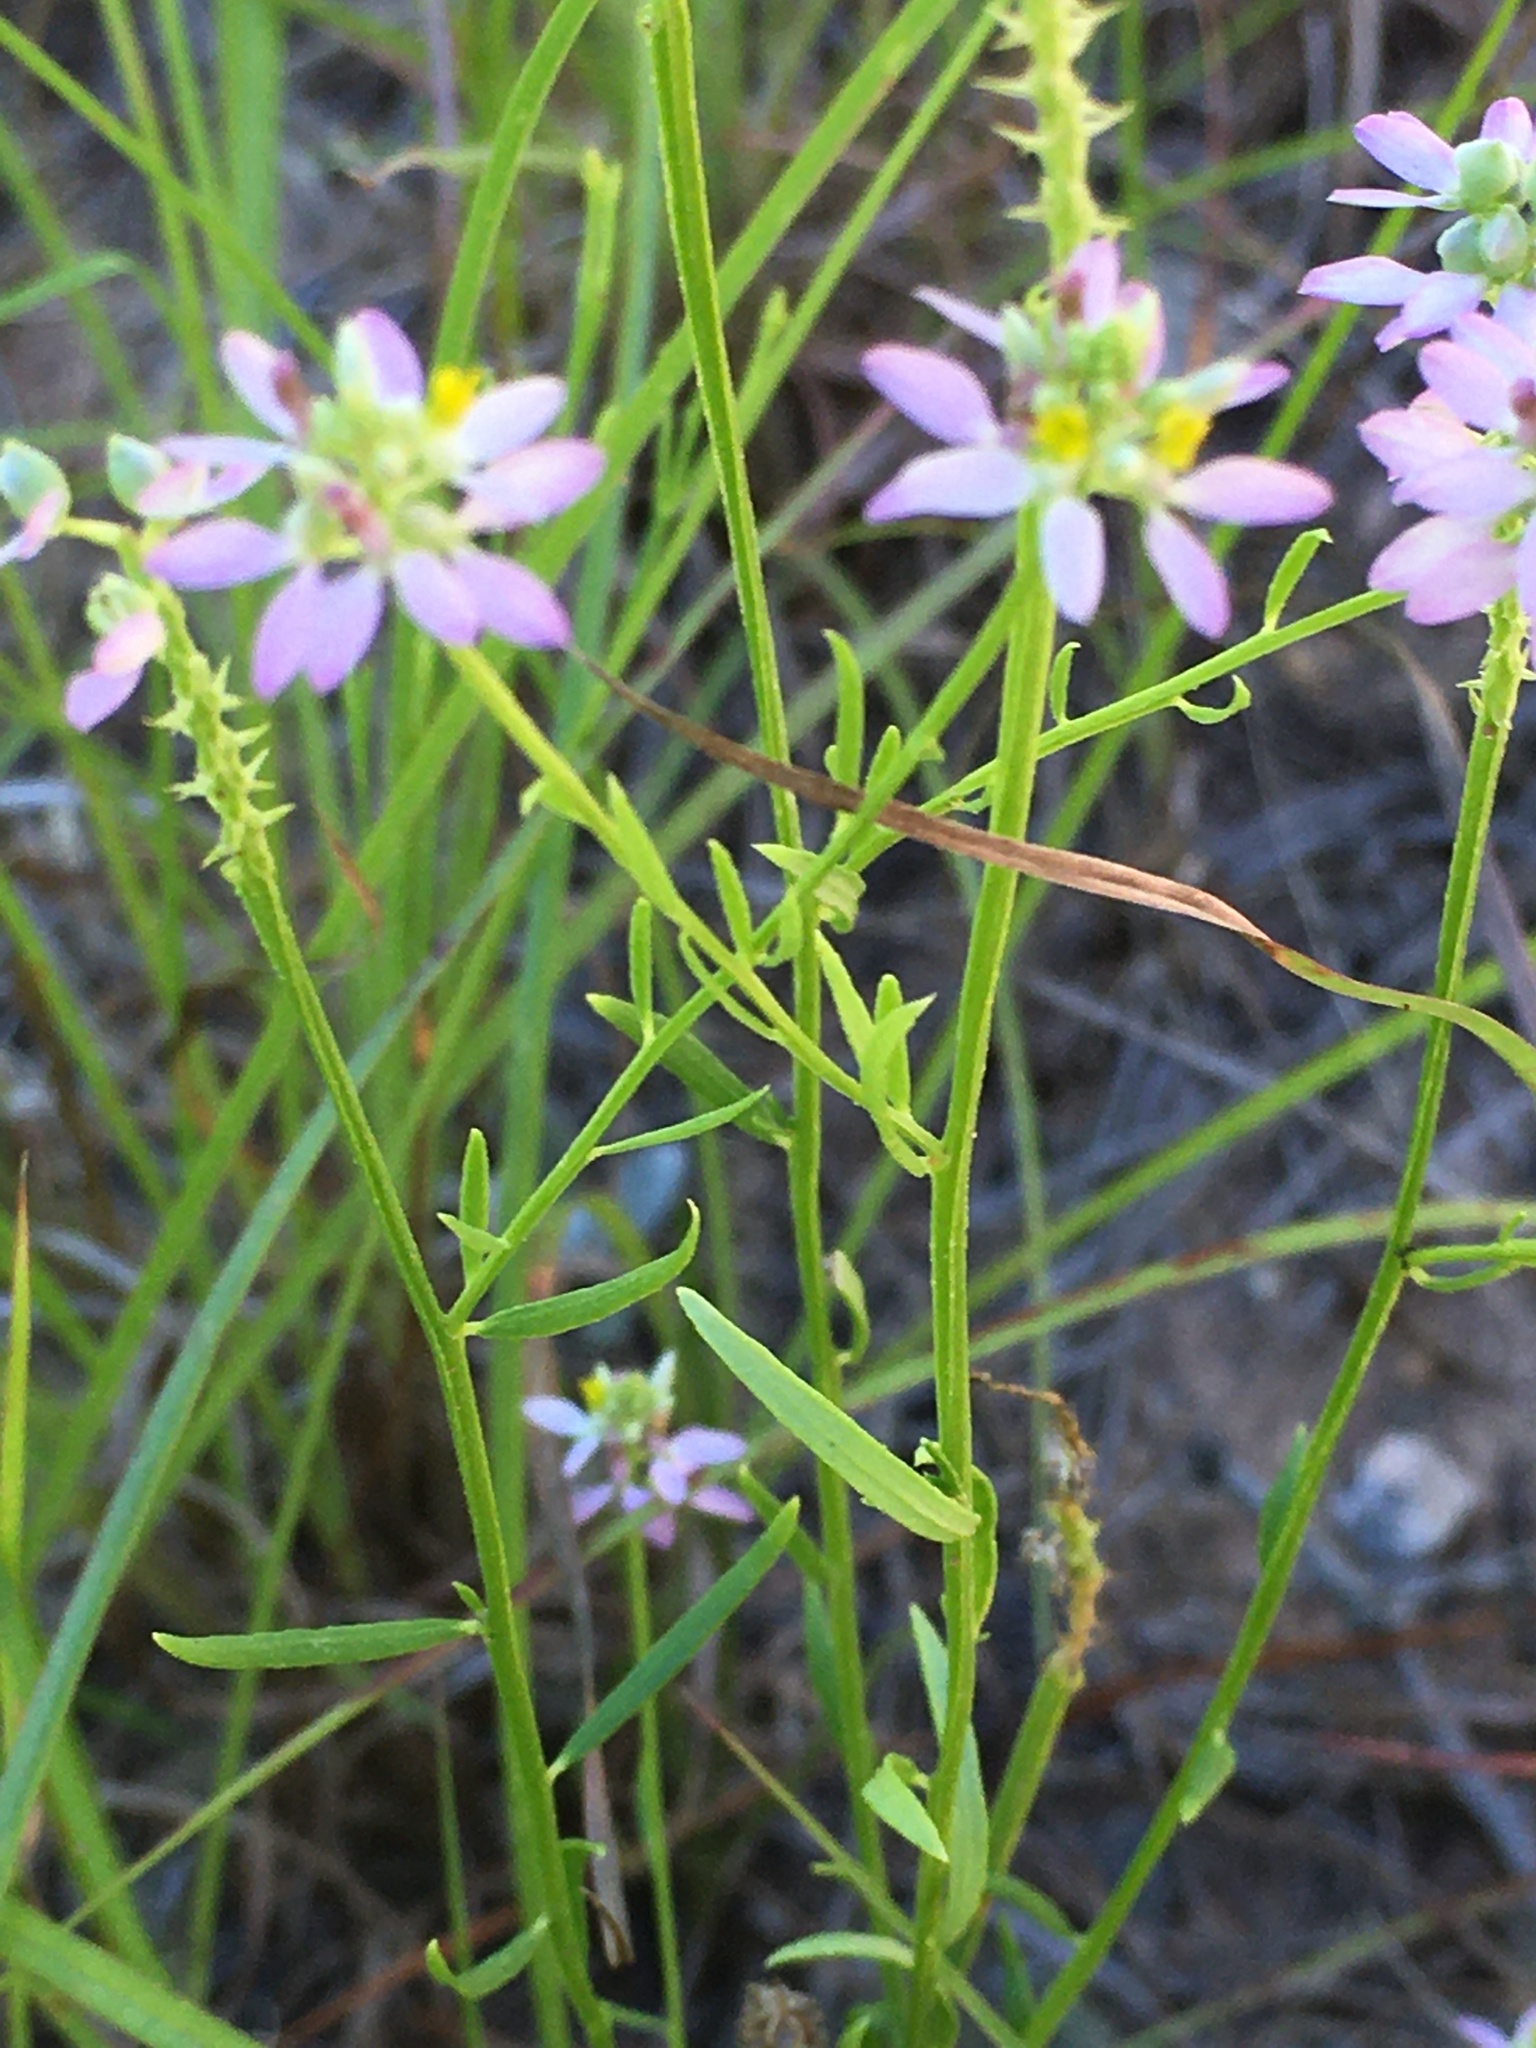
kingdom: Plantae
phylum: Tracheophyta
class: Magnoliopsida
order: Fabales
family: Polygalaceae
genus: Polygala
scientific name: Polygala curtissii
